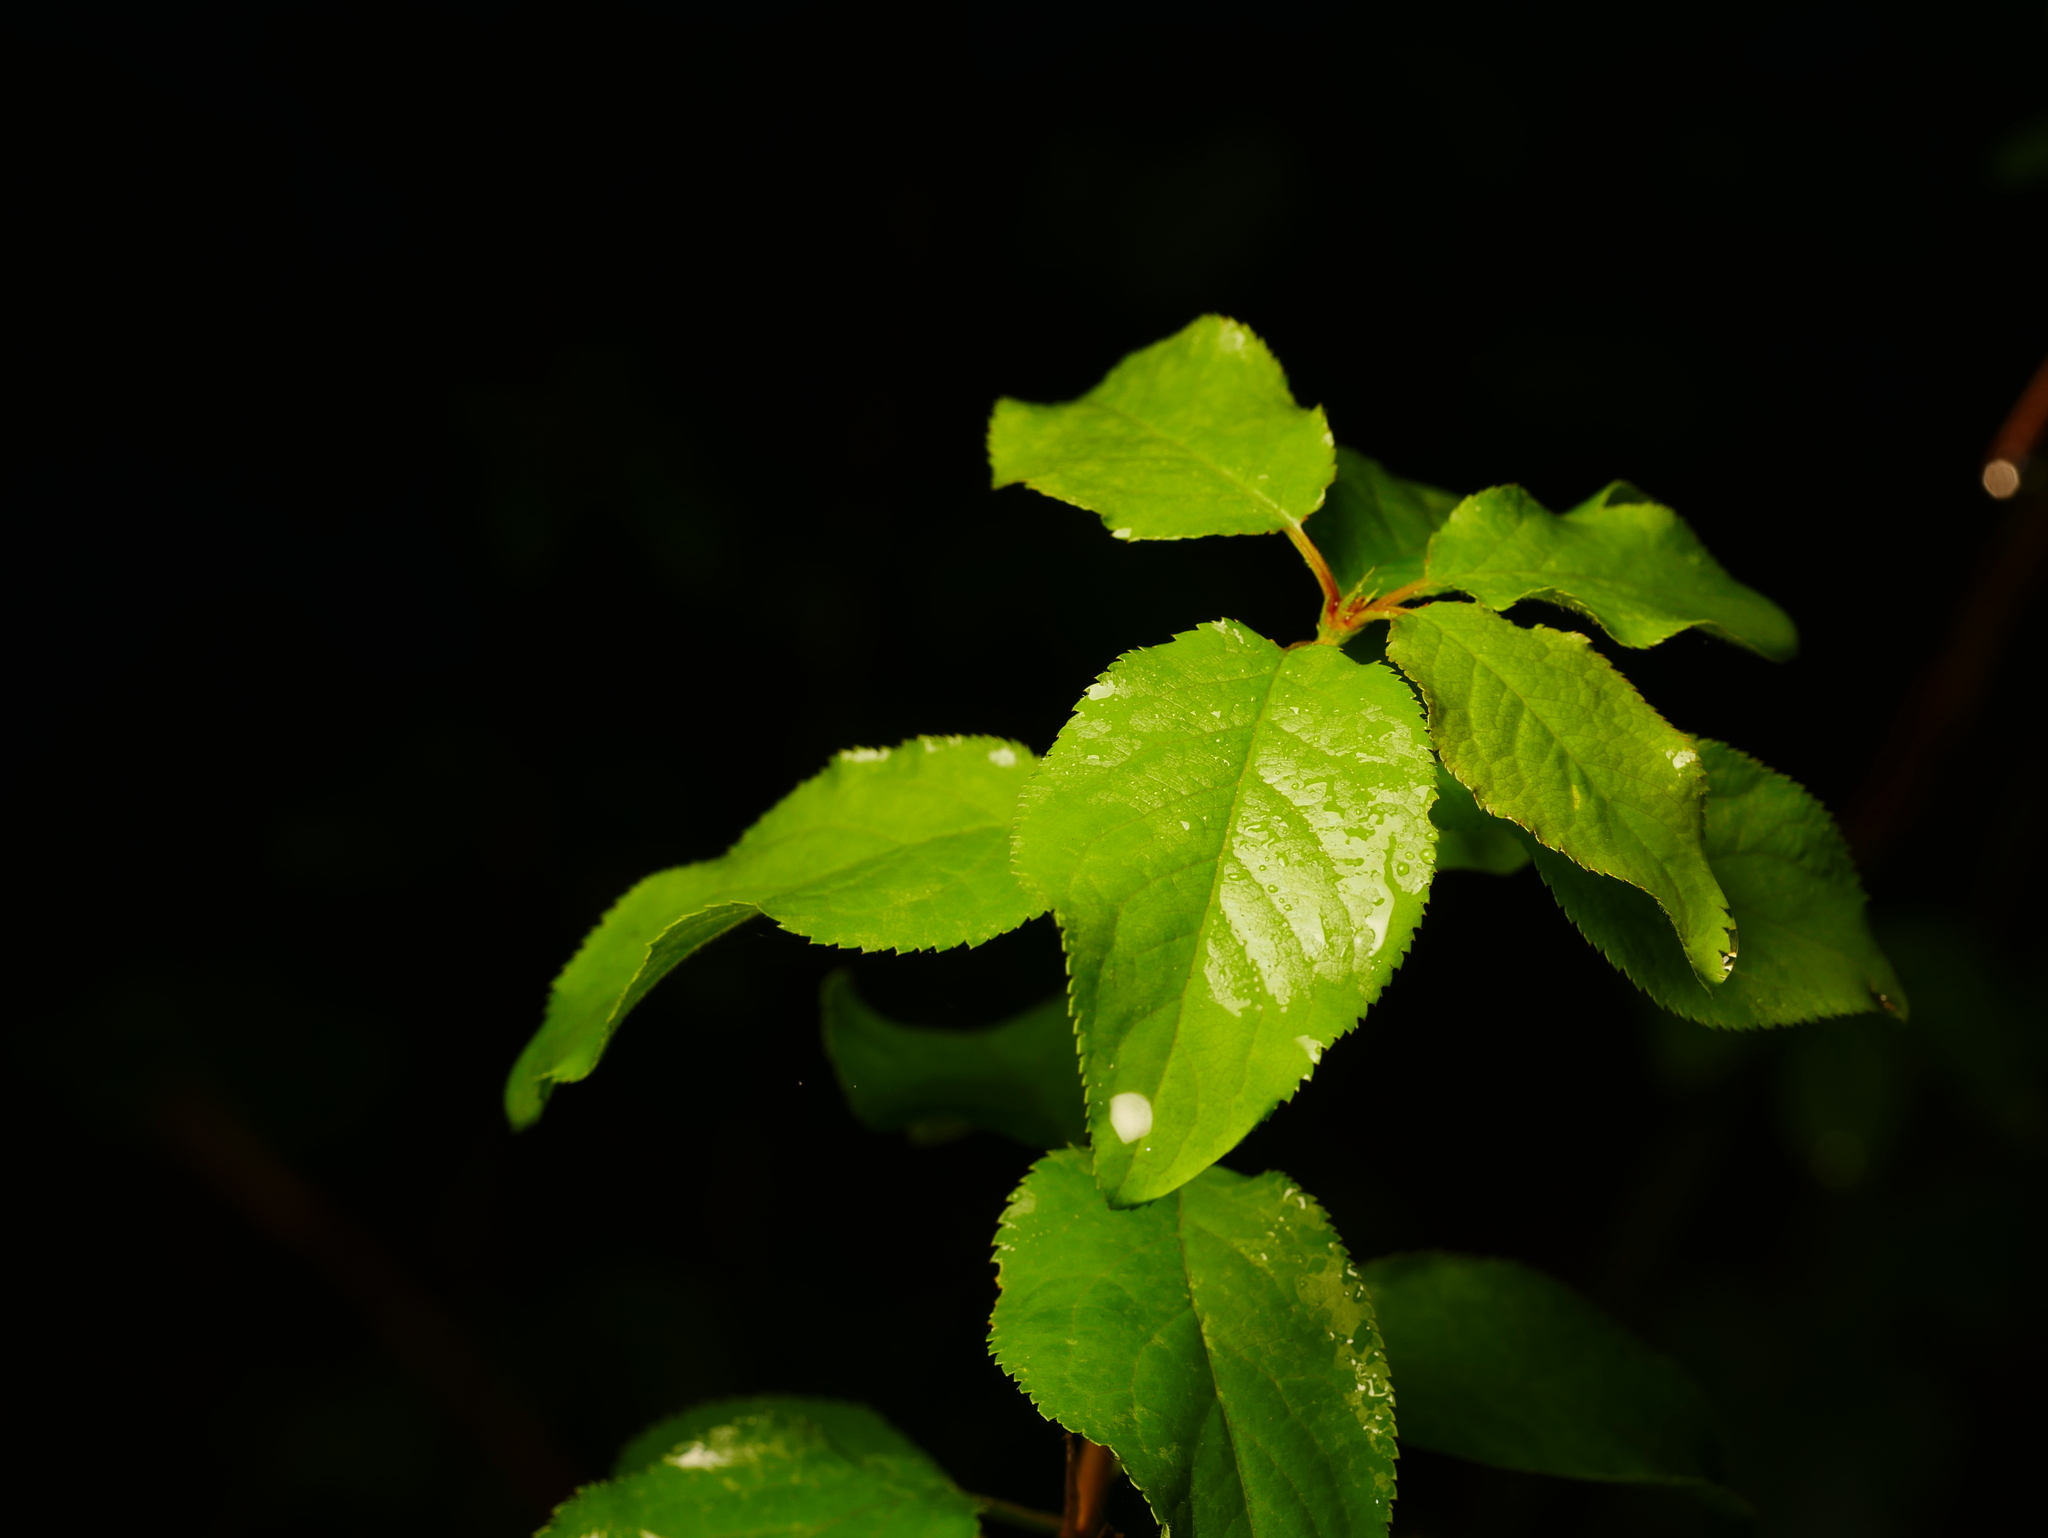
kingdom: Plantae
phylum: Tracheophyta
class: Magnoliopsida
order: Rosales
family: Rosaceae
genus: Prunus
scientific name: Prunus cerasifera
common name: Cherry plum
